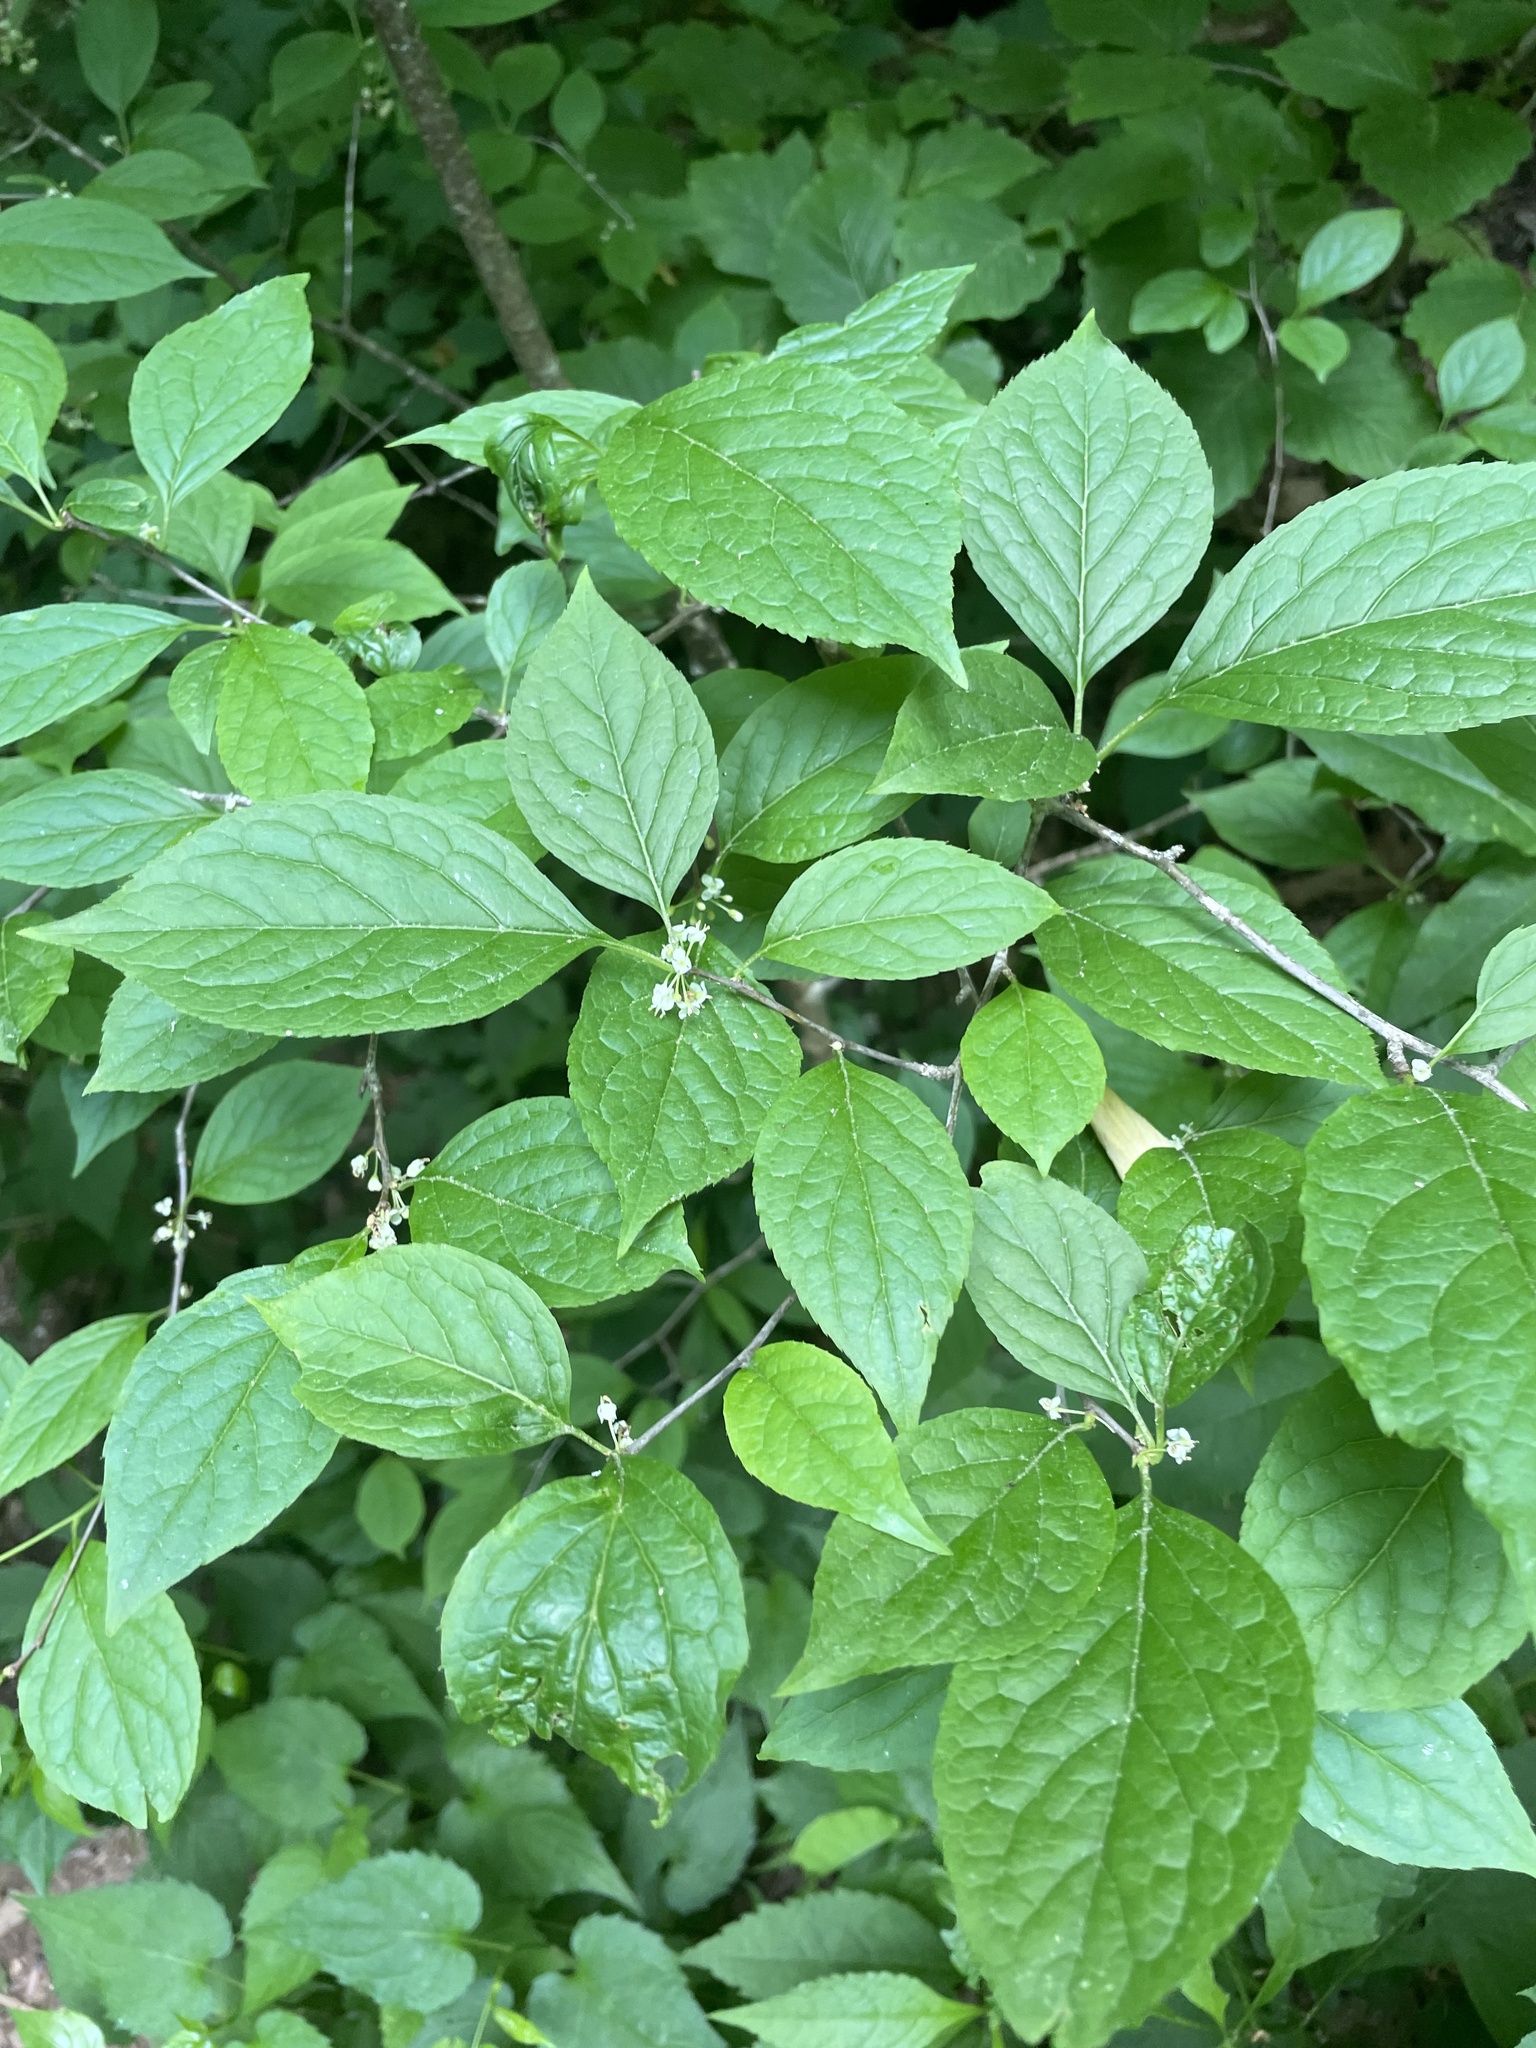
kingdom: Plantae
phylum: Tracheophyta
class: Magnoliopsida
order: Aquifoliales
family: Aquifoliaceae
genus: Ilex
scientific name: Ilex montana
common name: Mountain winterberry
